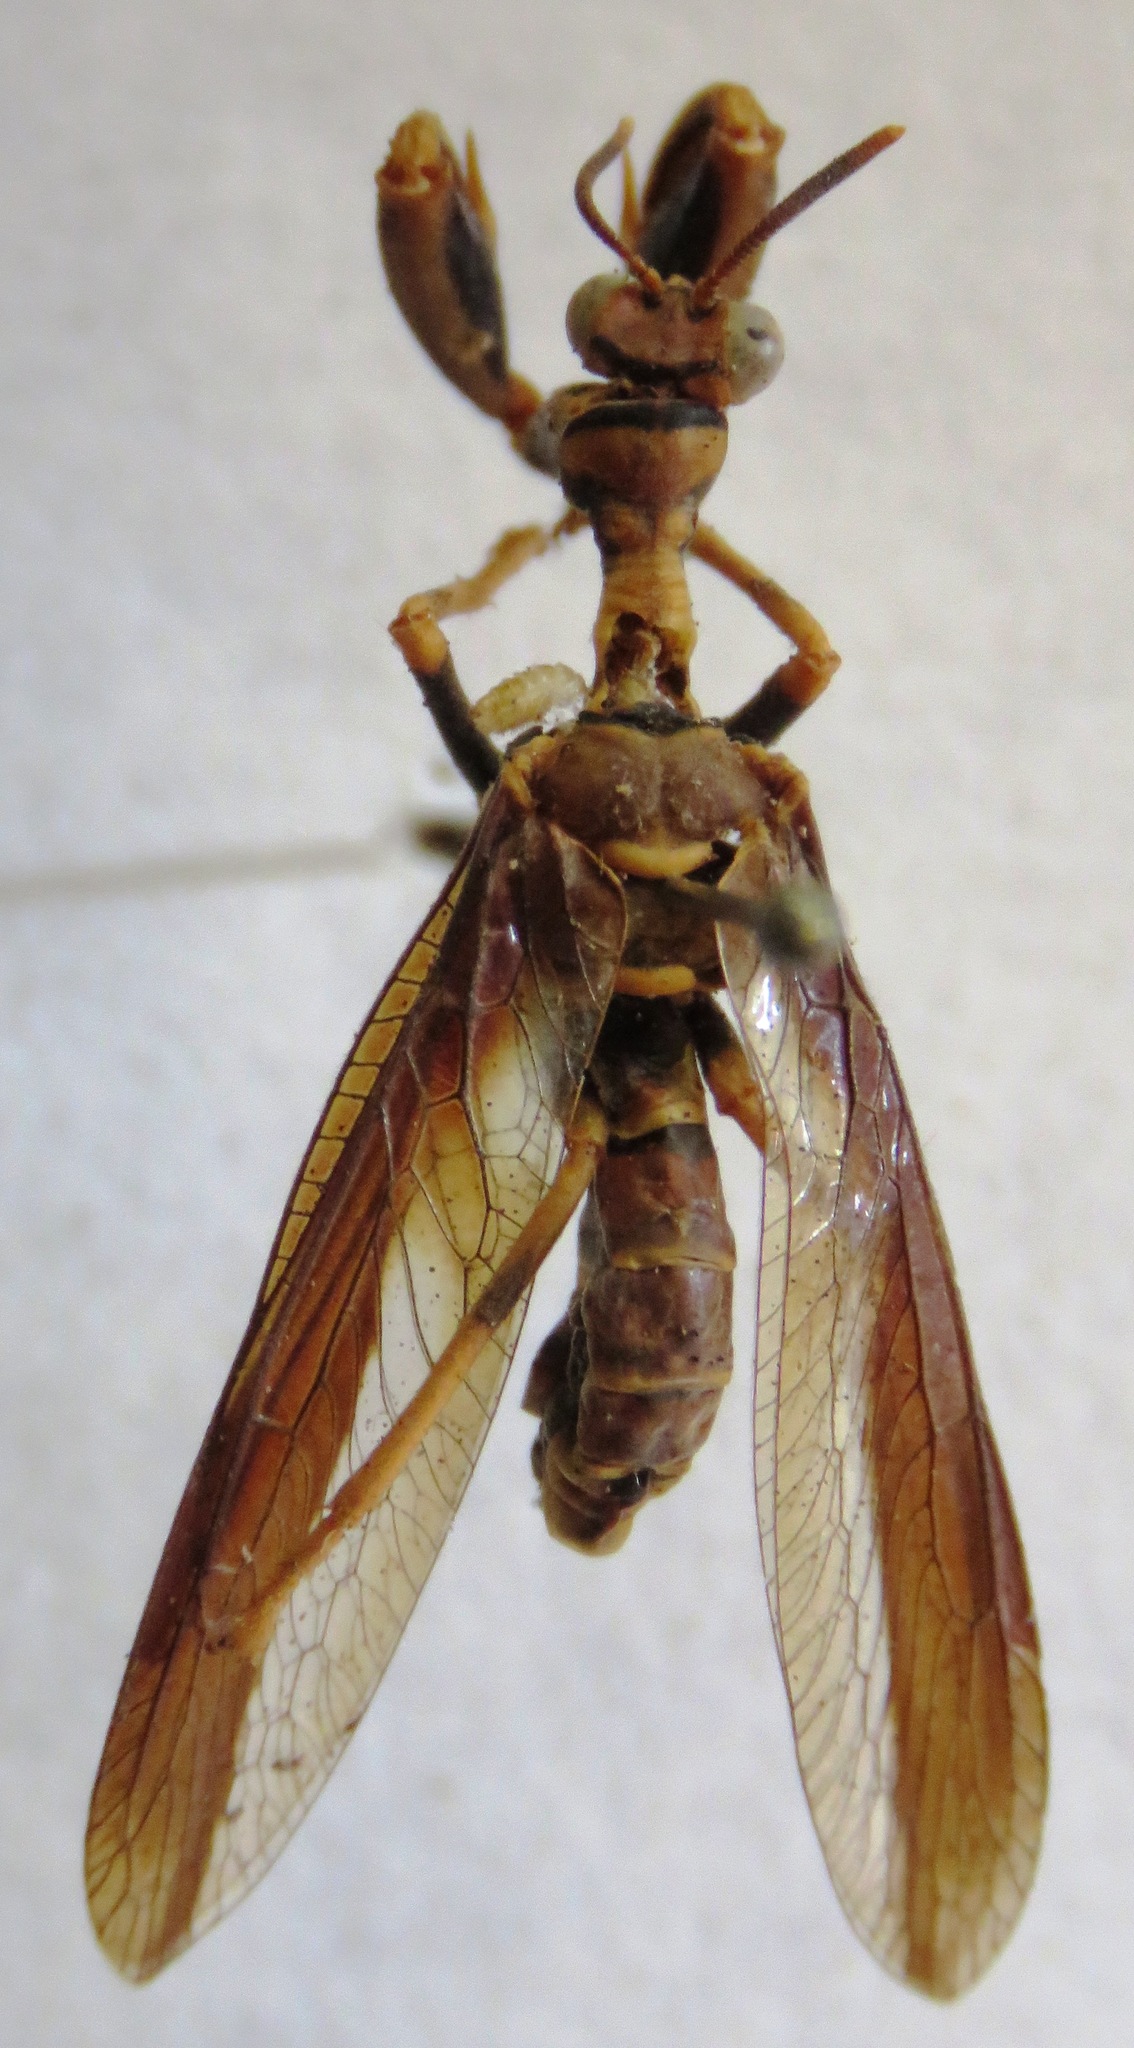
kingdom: Animalia
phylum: Arthropoda
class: Insecta
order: Neuroptera
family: Mantispidae
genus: Climaciella
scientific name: Climaciella brunnea
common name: Brown wasp mantidfly
